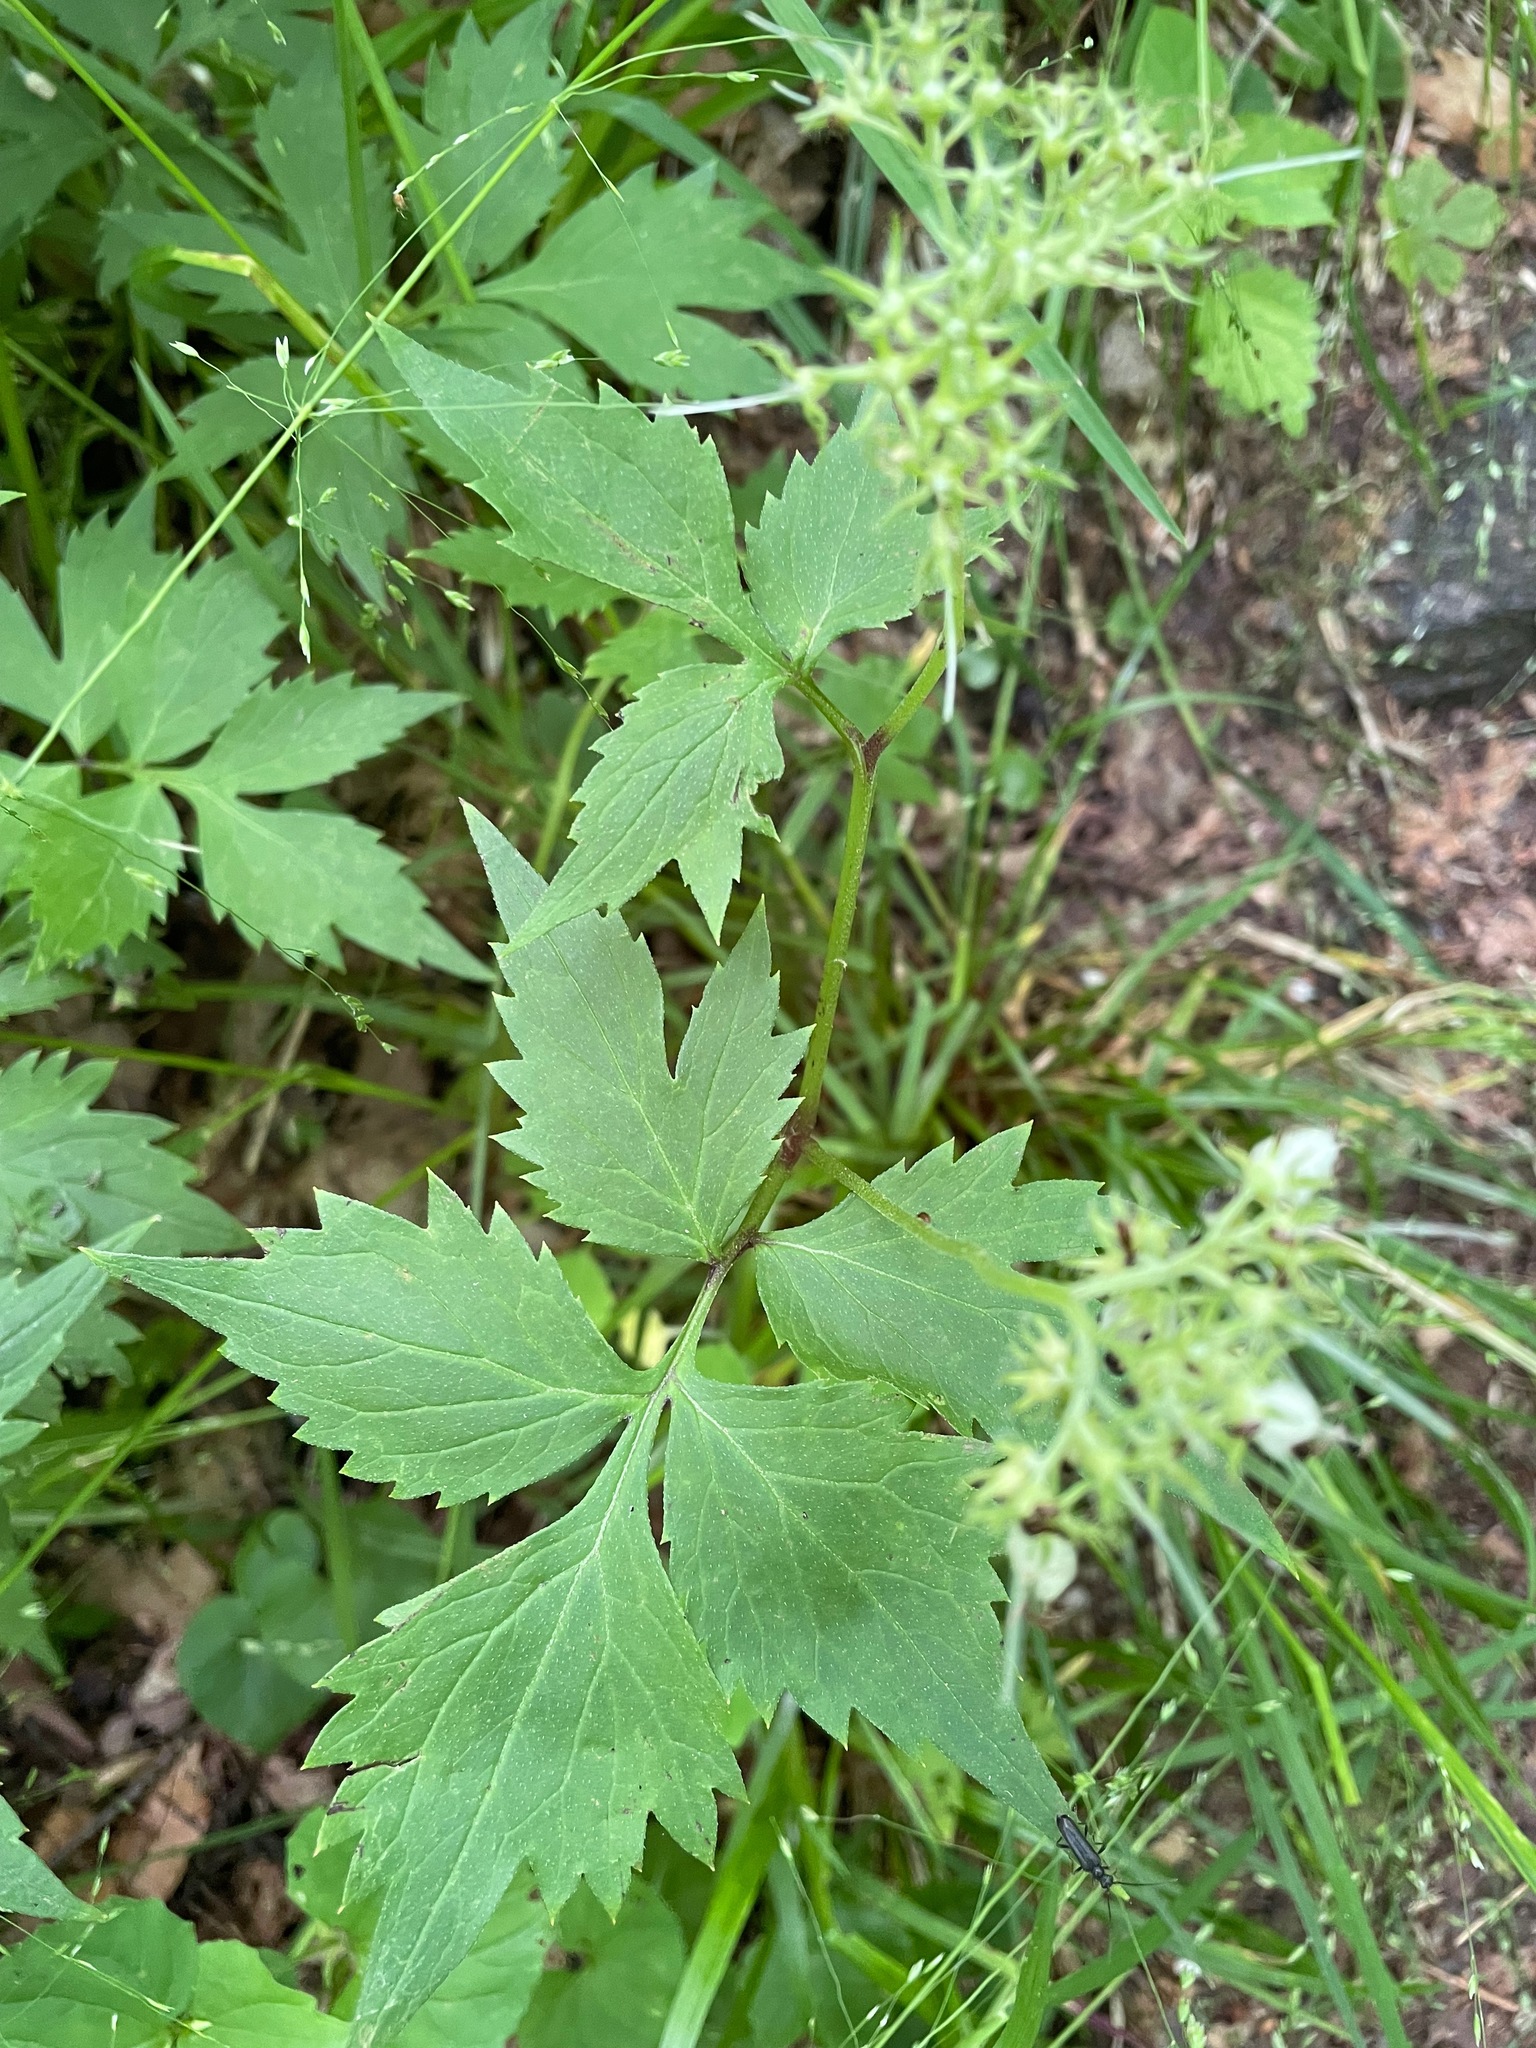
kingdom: Plantae
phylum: Tracheophyta
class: Magnoliopsida
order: Boraginales
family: Hydrophyllaceae
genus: Hydrophyllum
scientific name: Hydrophyllum virginianum
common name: Virginia waterleaf
